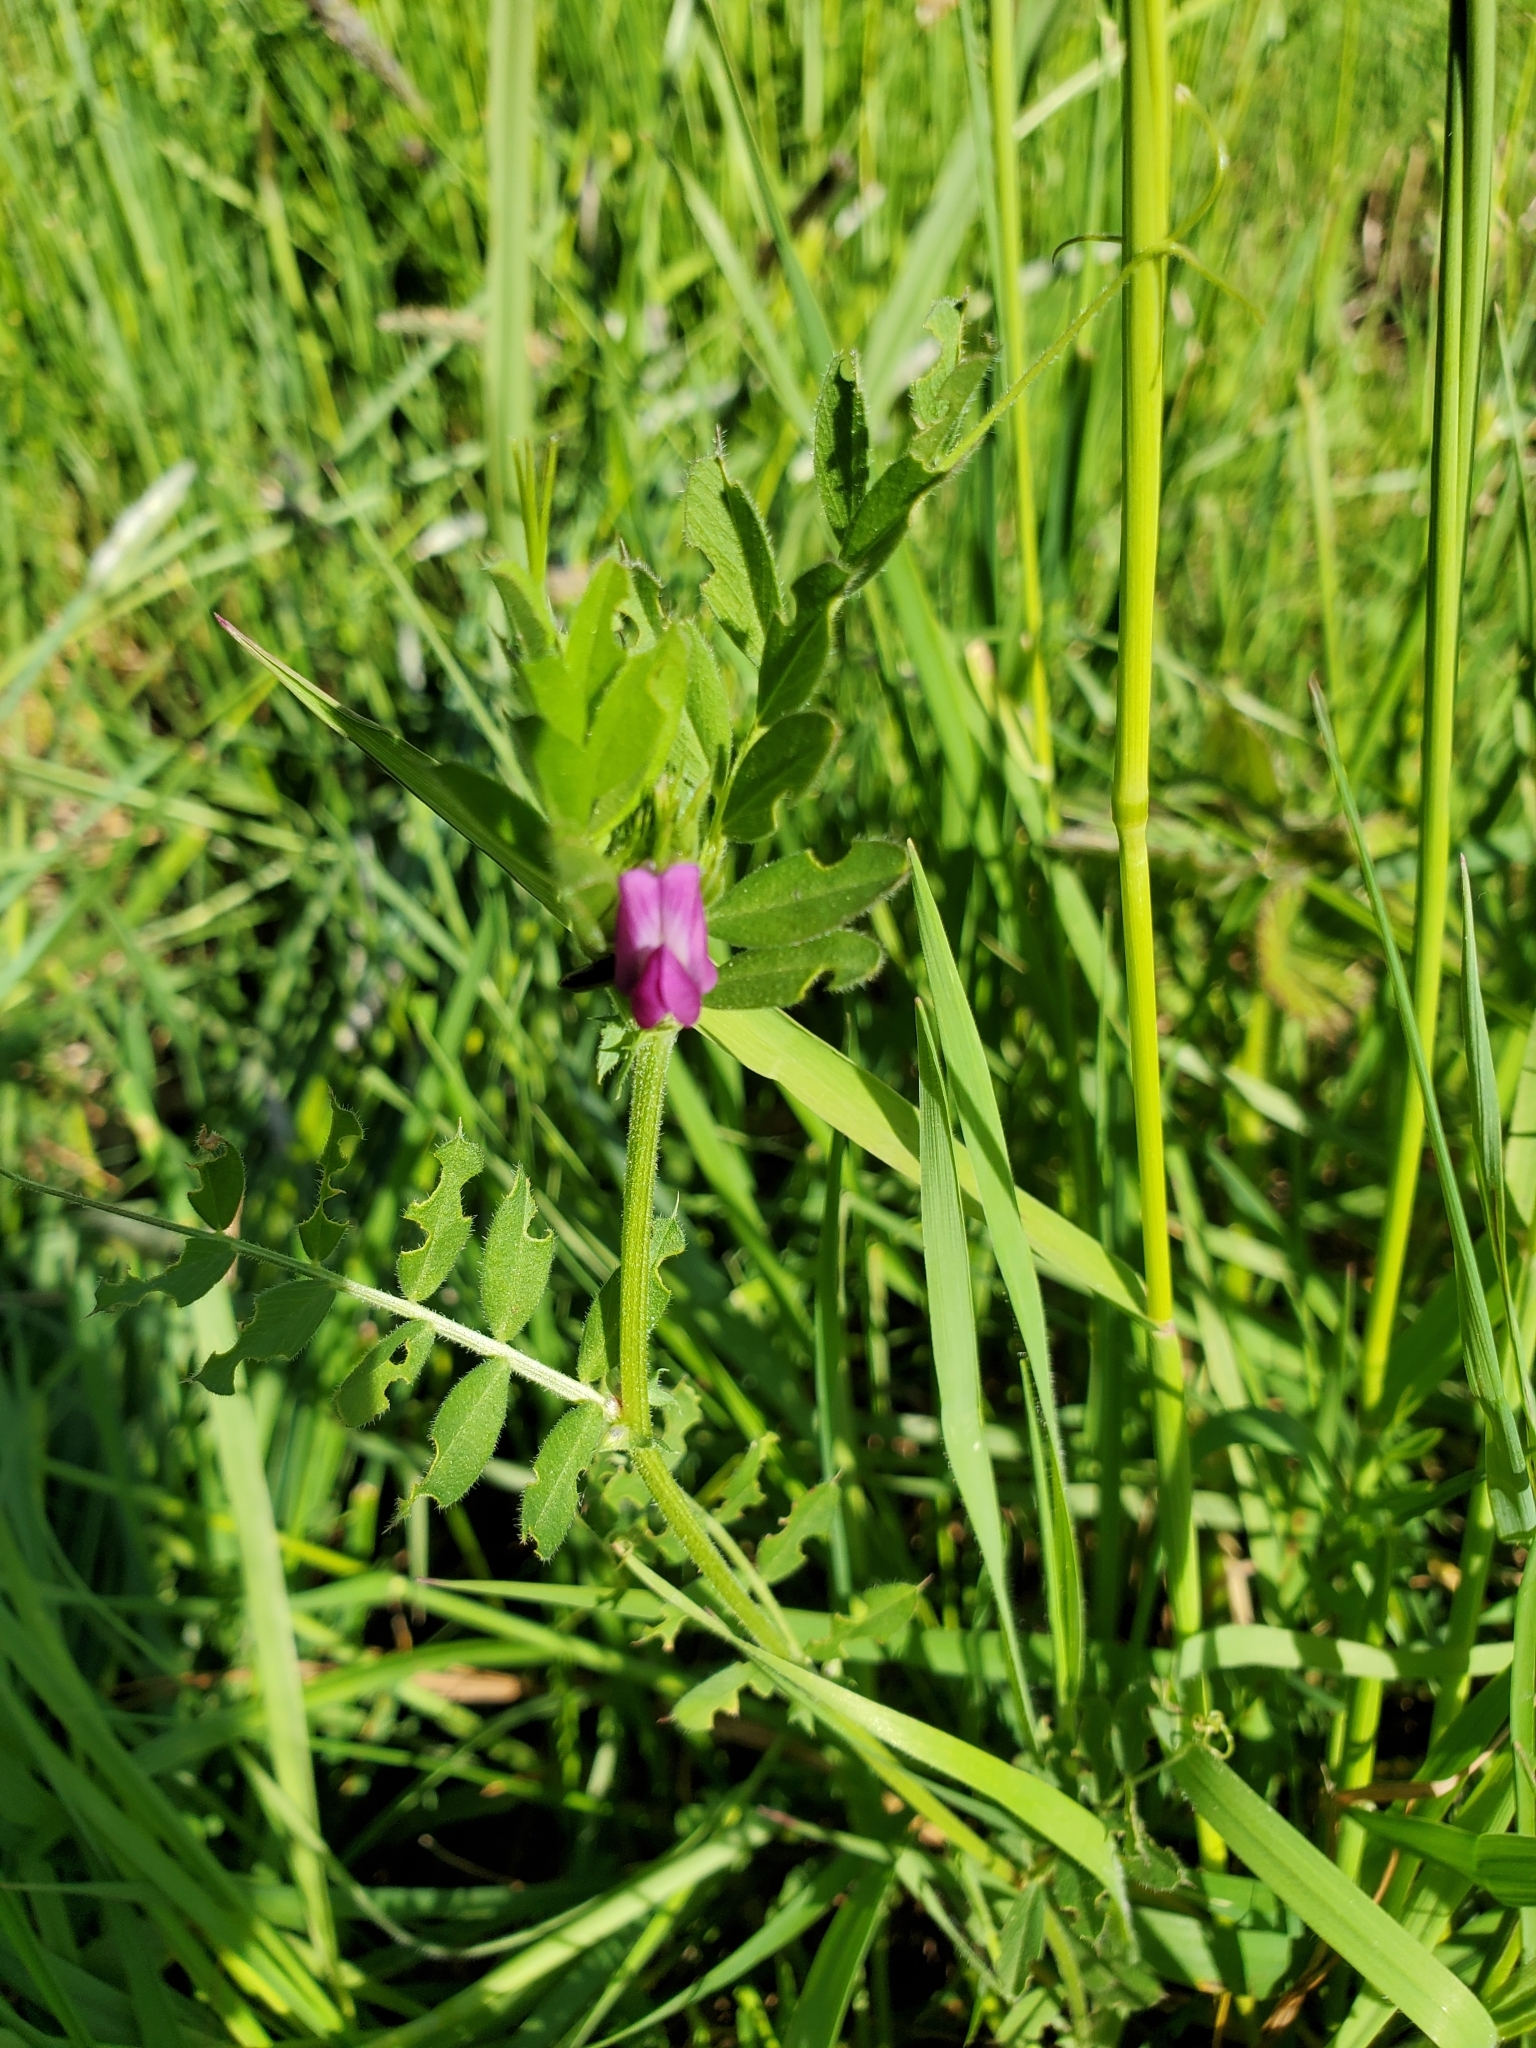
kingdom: Plantae
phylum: Tracheophyta
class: Magnoliopsida
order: Fabales
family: Fabaceae
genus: Vicia
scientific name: Vicia sativa
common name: Garden vetch
